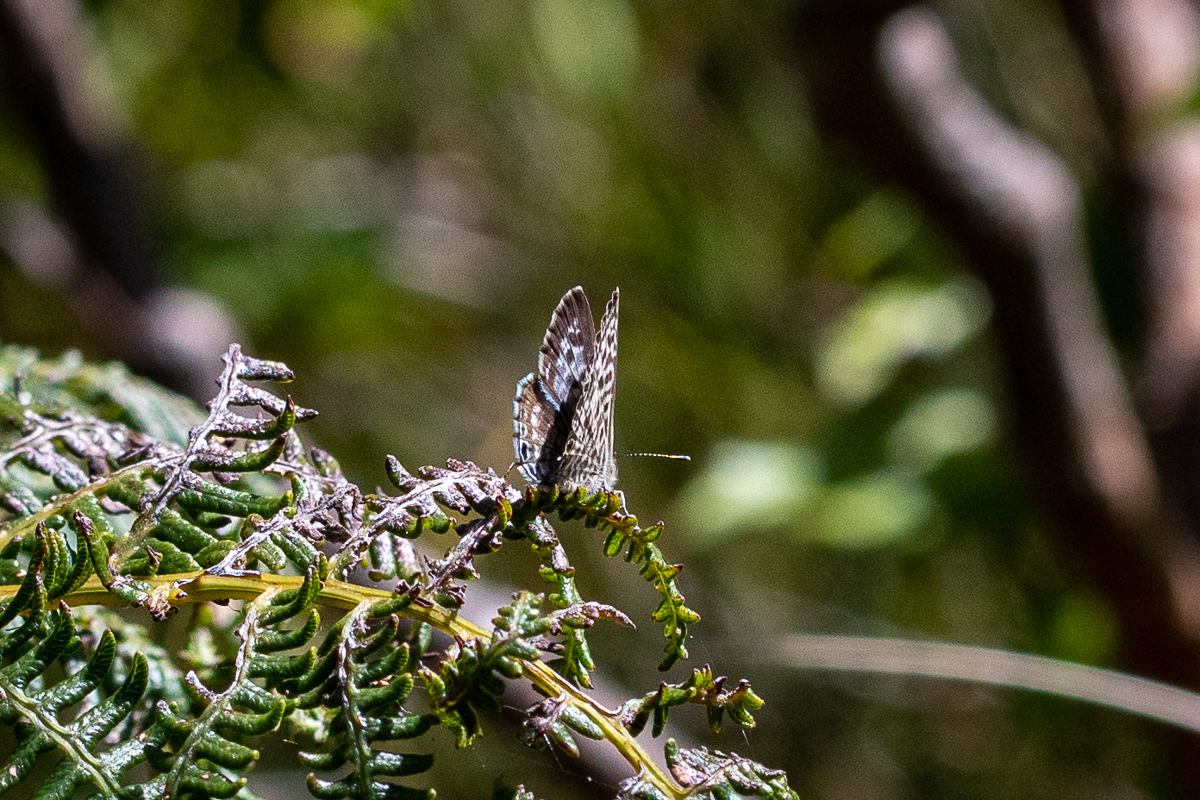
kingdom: Animalia
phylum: Arthropoda
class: Insecta
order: Lepidoptera
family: Lycaenidae
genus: Leptotes
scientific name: Leptotes
